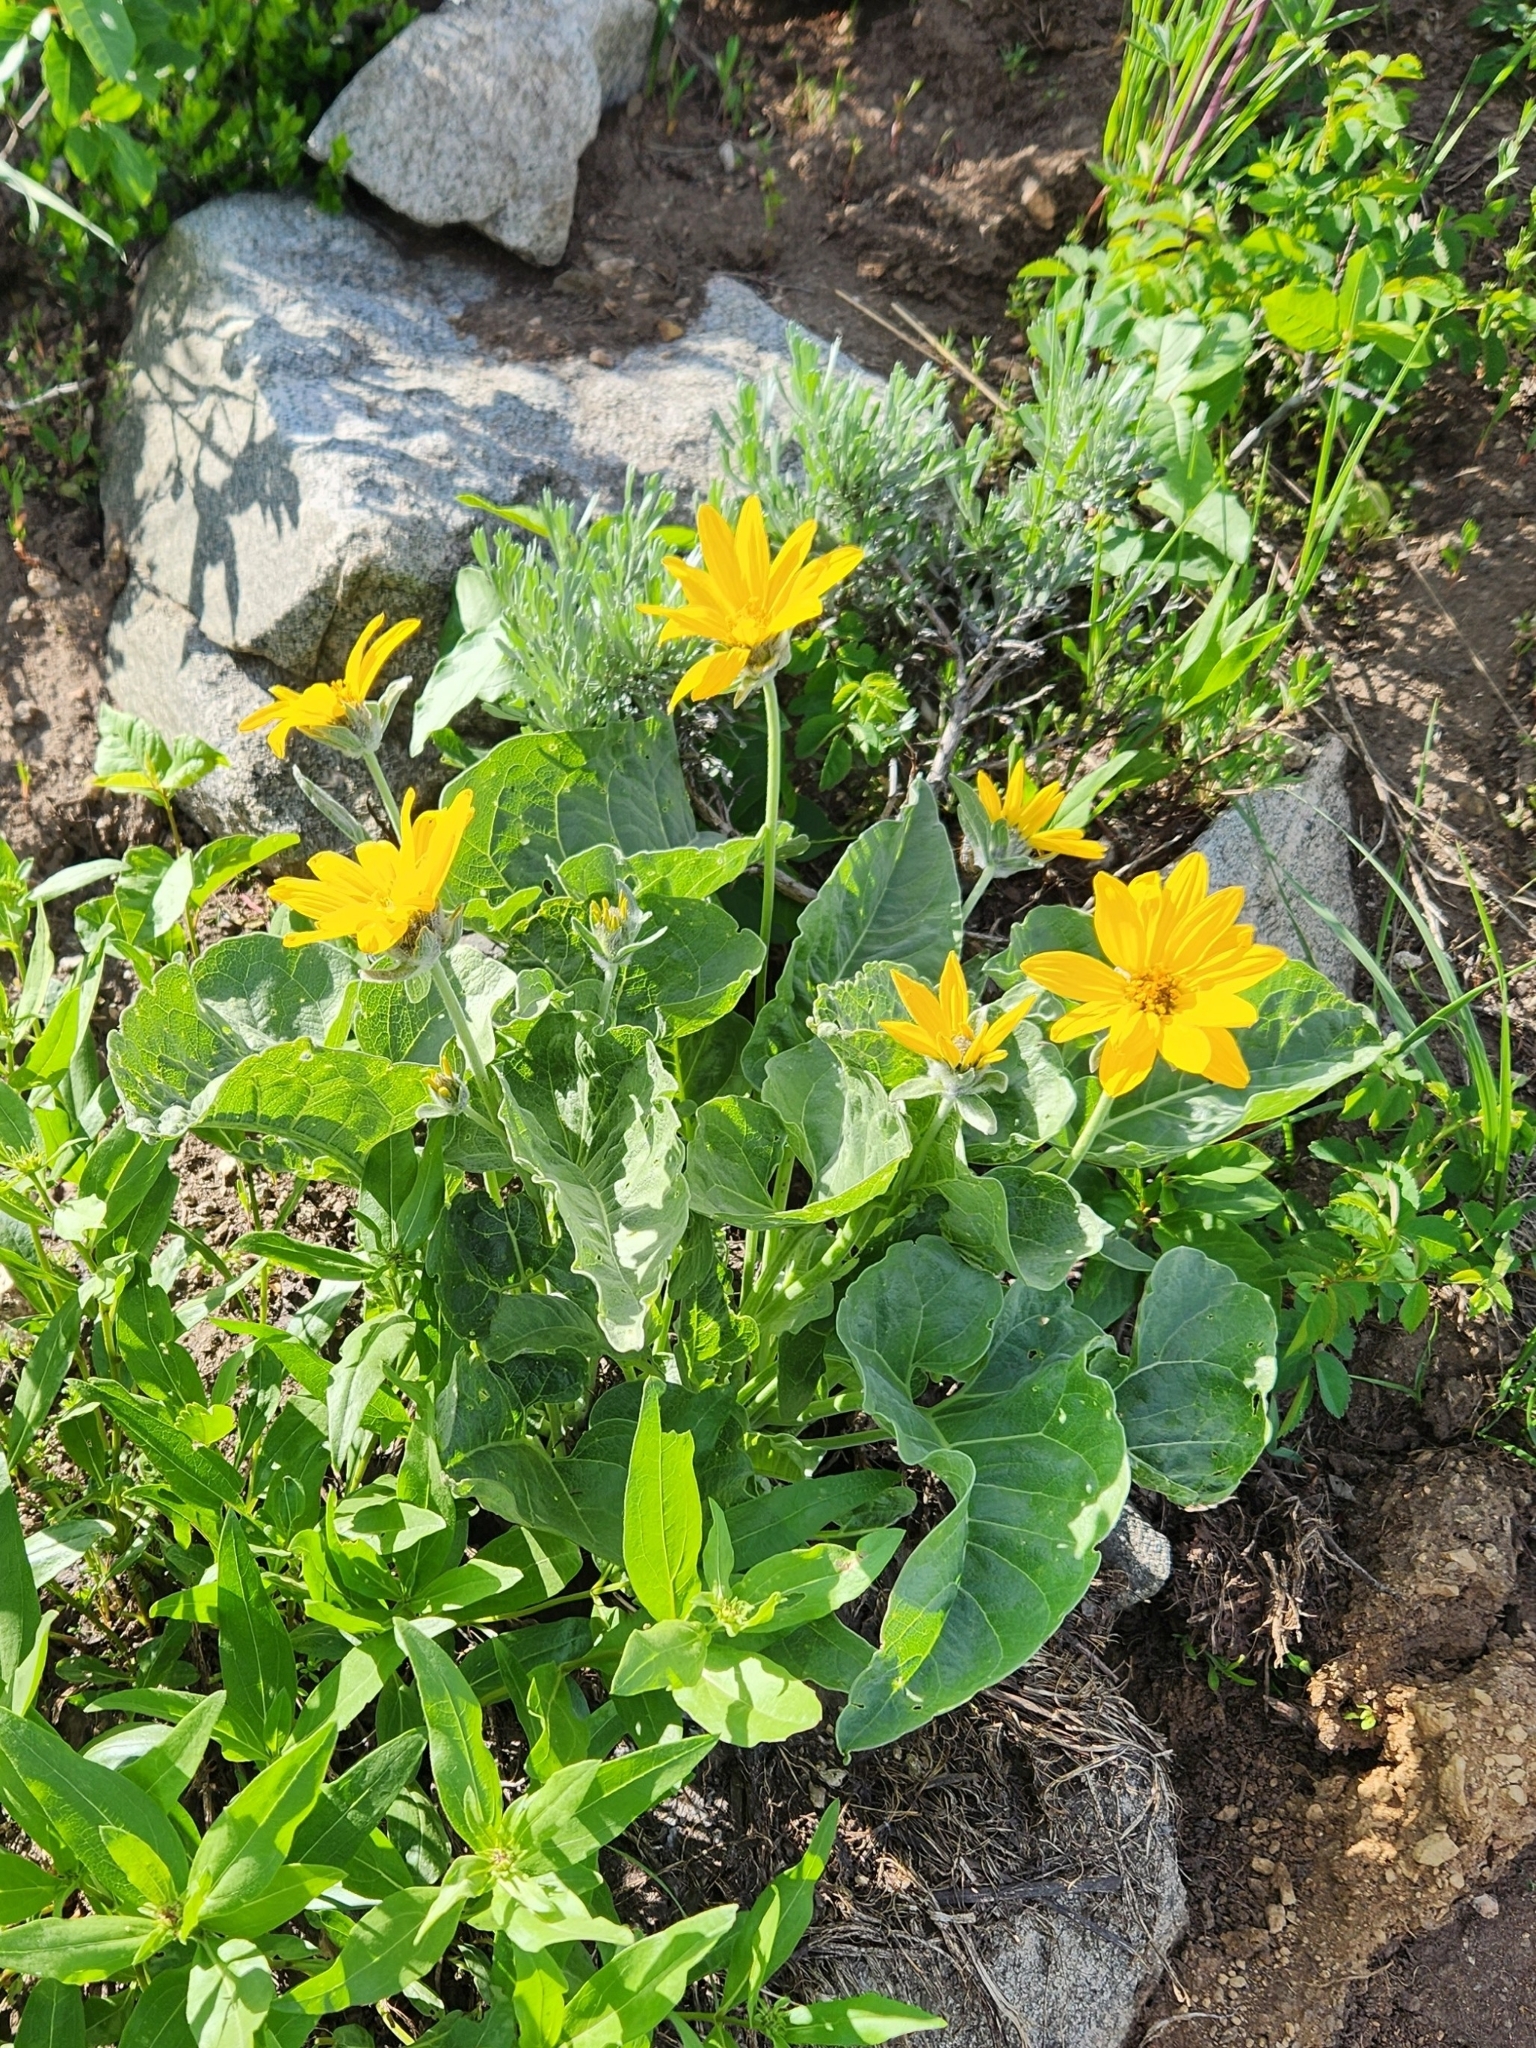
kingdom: Plantae
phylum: Tracheophyta
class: Magnoliopsida
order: Asterales
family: Asteraceae
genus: Wyethia
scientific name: Wyethia sagittata
